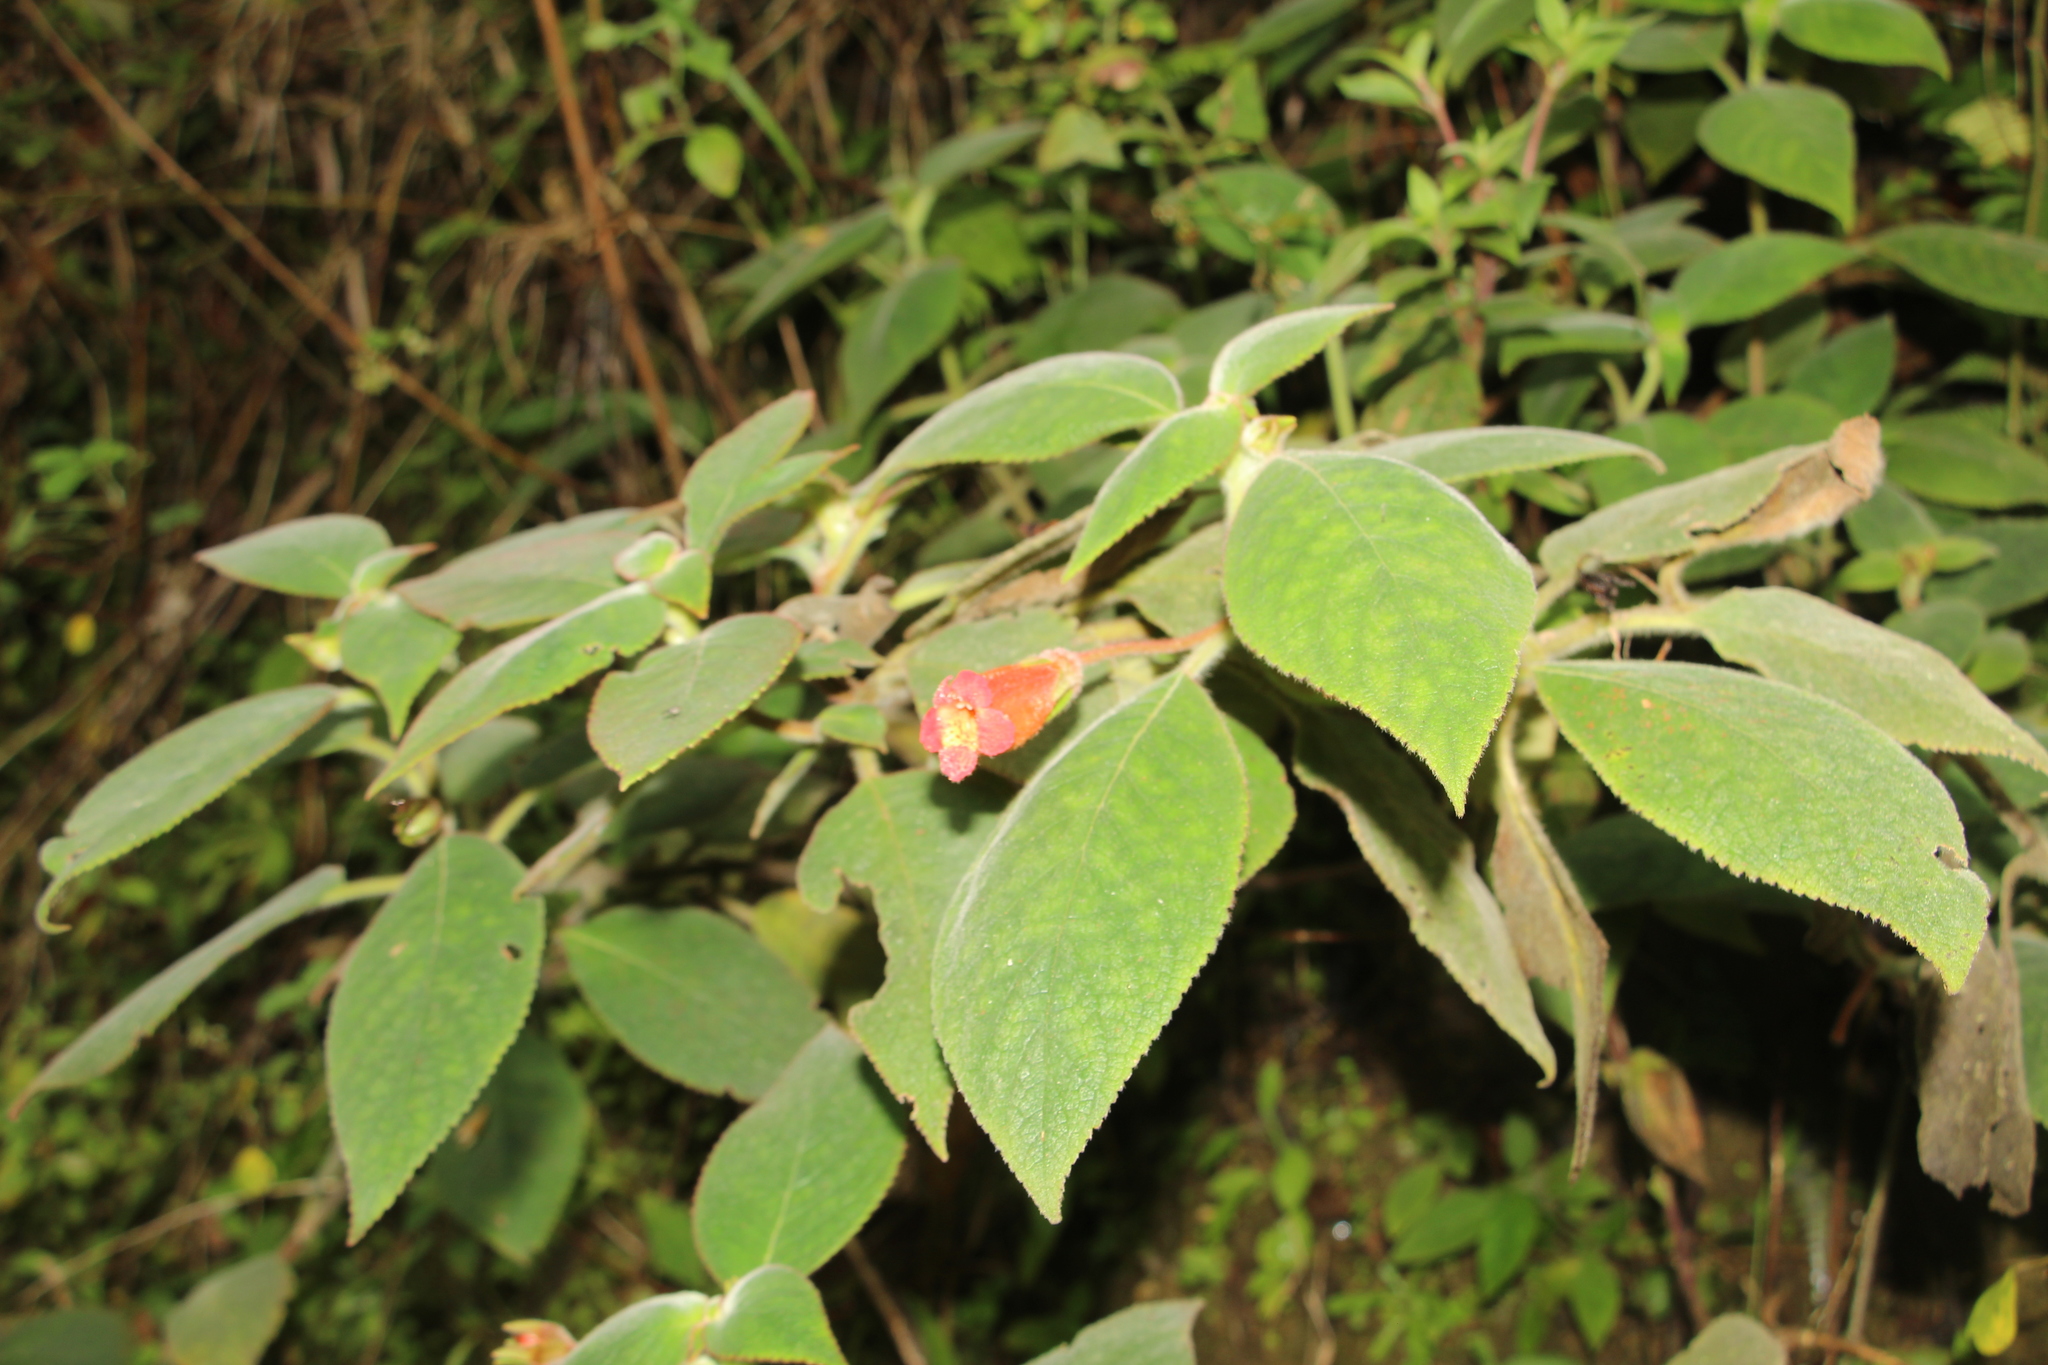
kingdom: Plantae
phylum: Tracheophyta
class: Magnoliopsida
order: Lamiales
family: Gesneriaceae
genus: Kohleria
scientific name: Kohleria hirsuta
